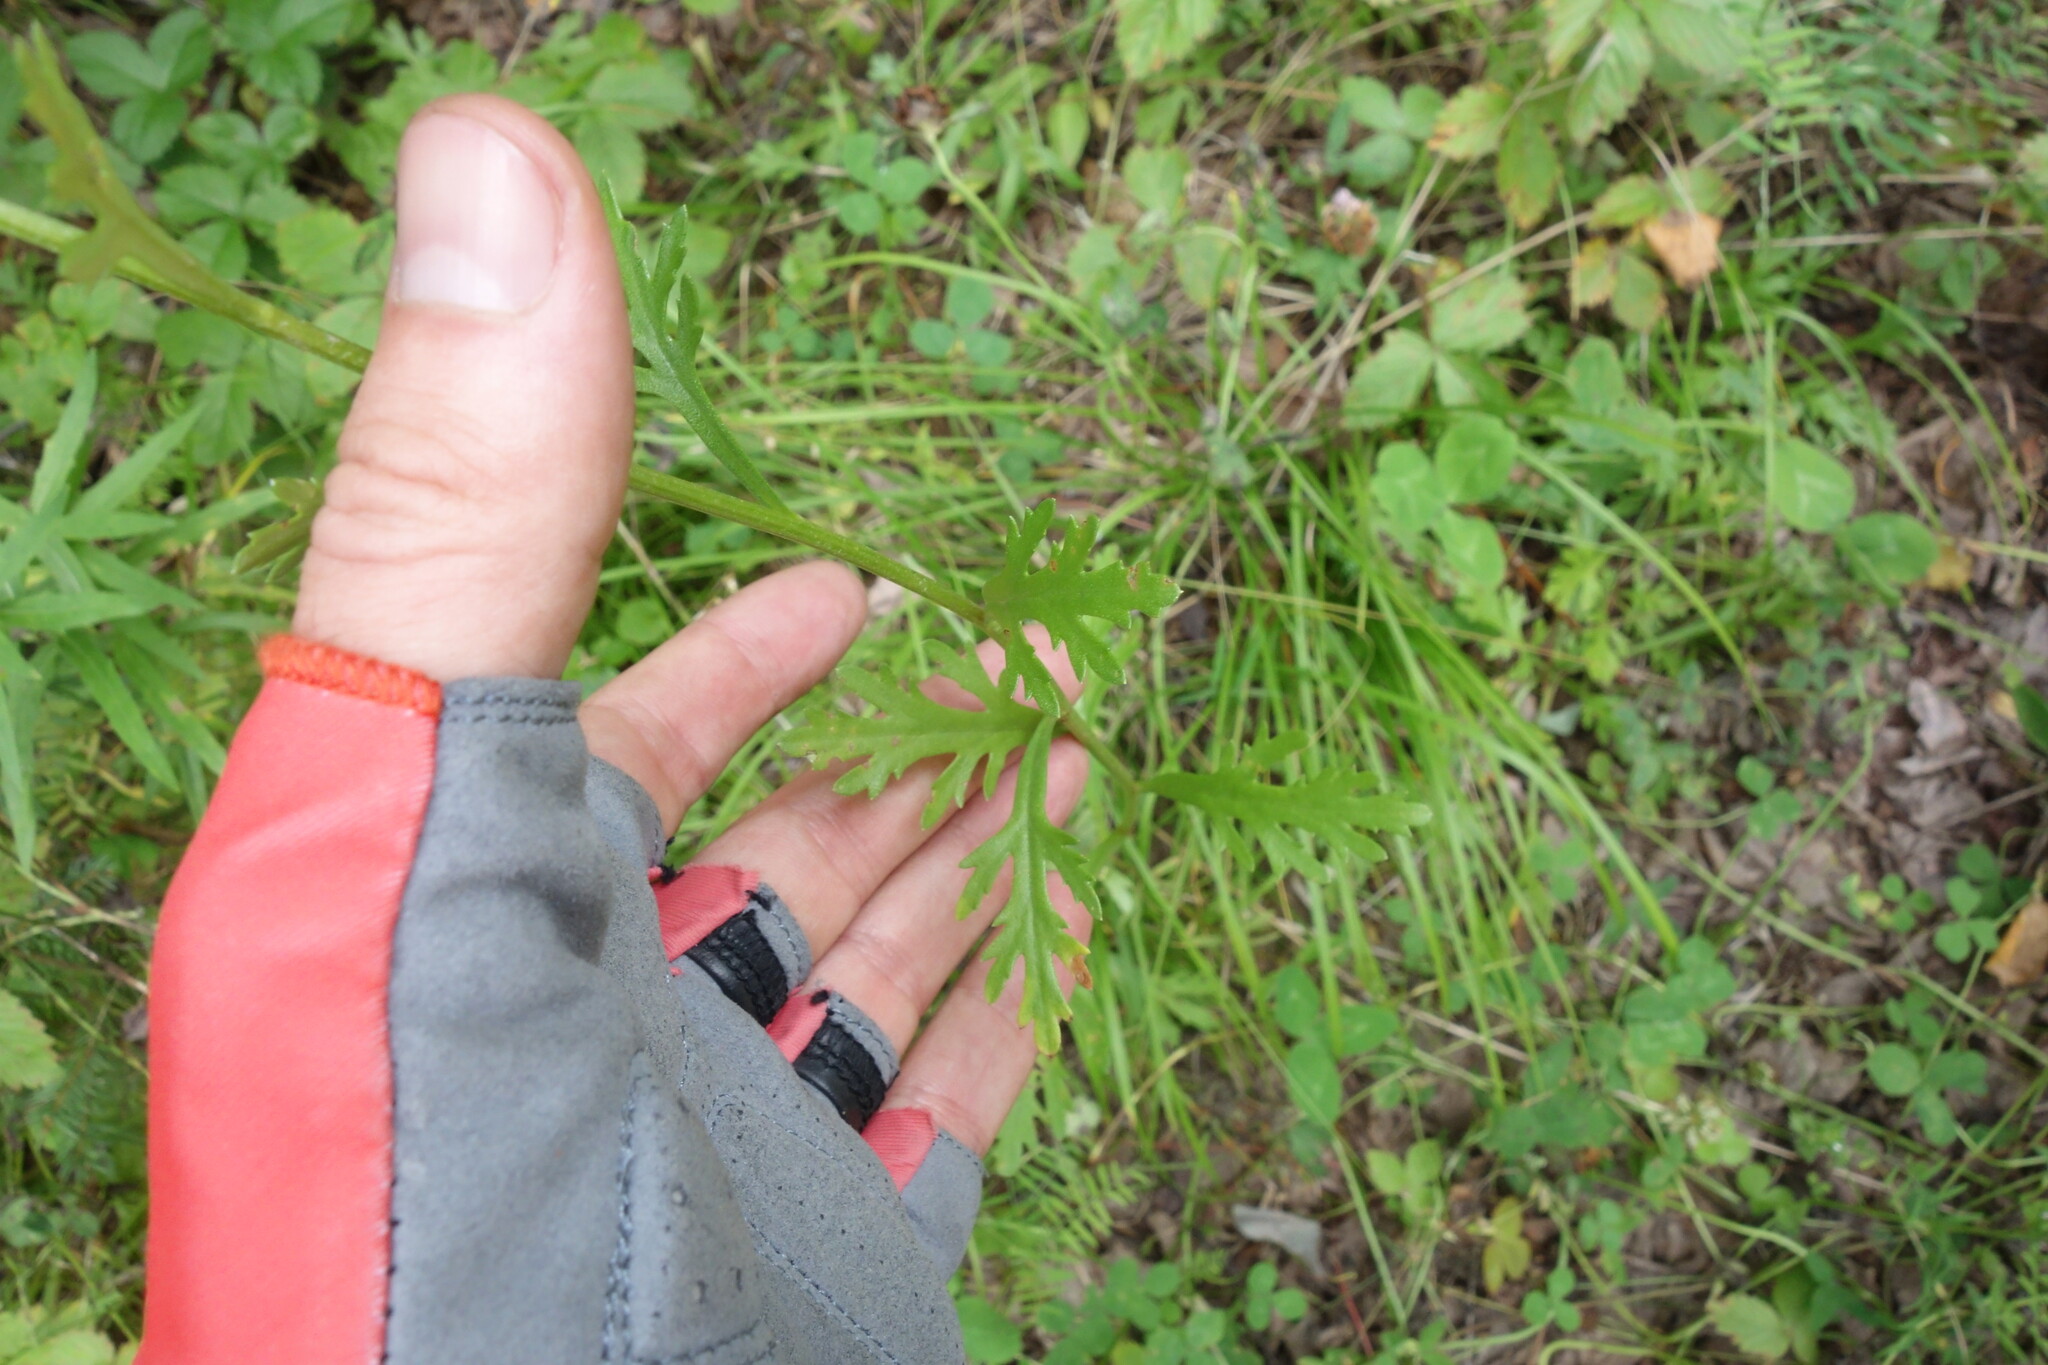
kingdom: Plantae
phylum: Tracheophyta
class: Magnoliopsida
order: Asterales
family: Asteraceae
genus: Chrysanthemum
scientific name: Chrysanthemum zawadzkii
